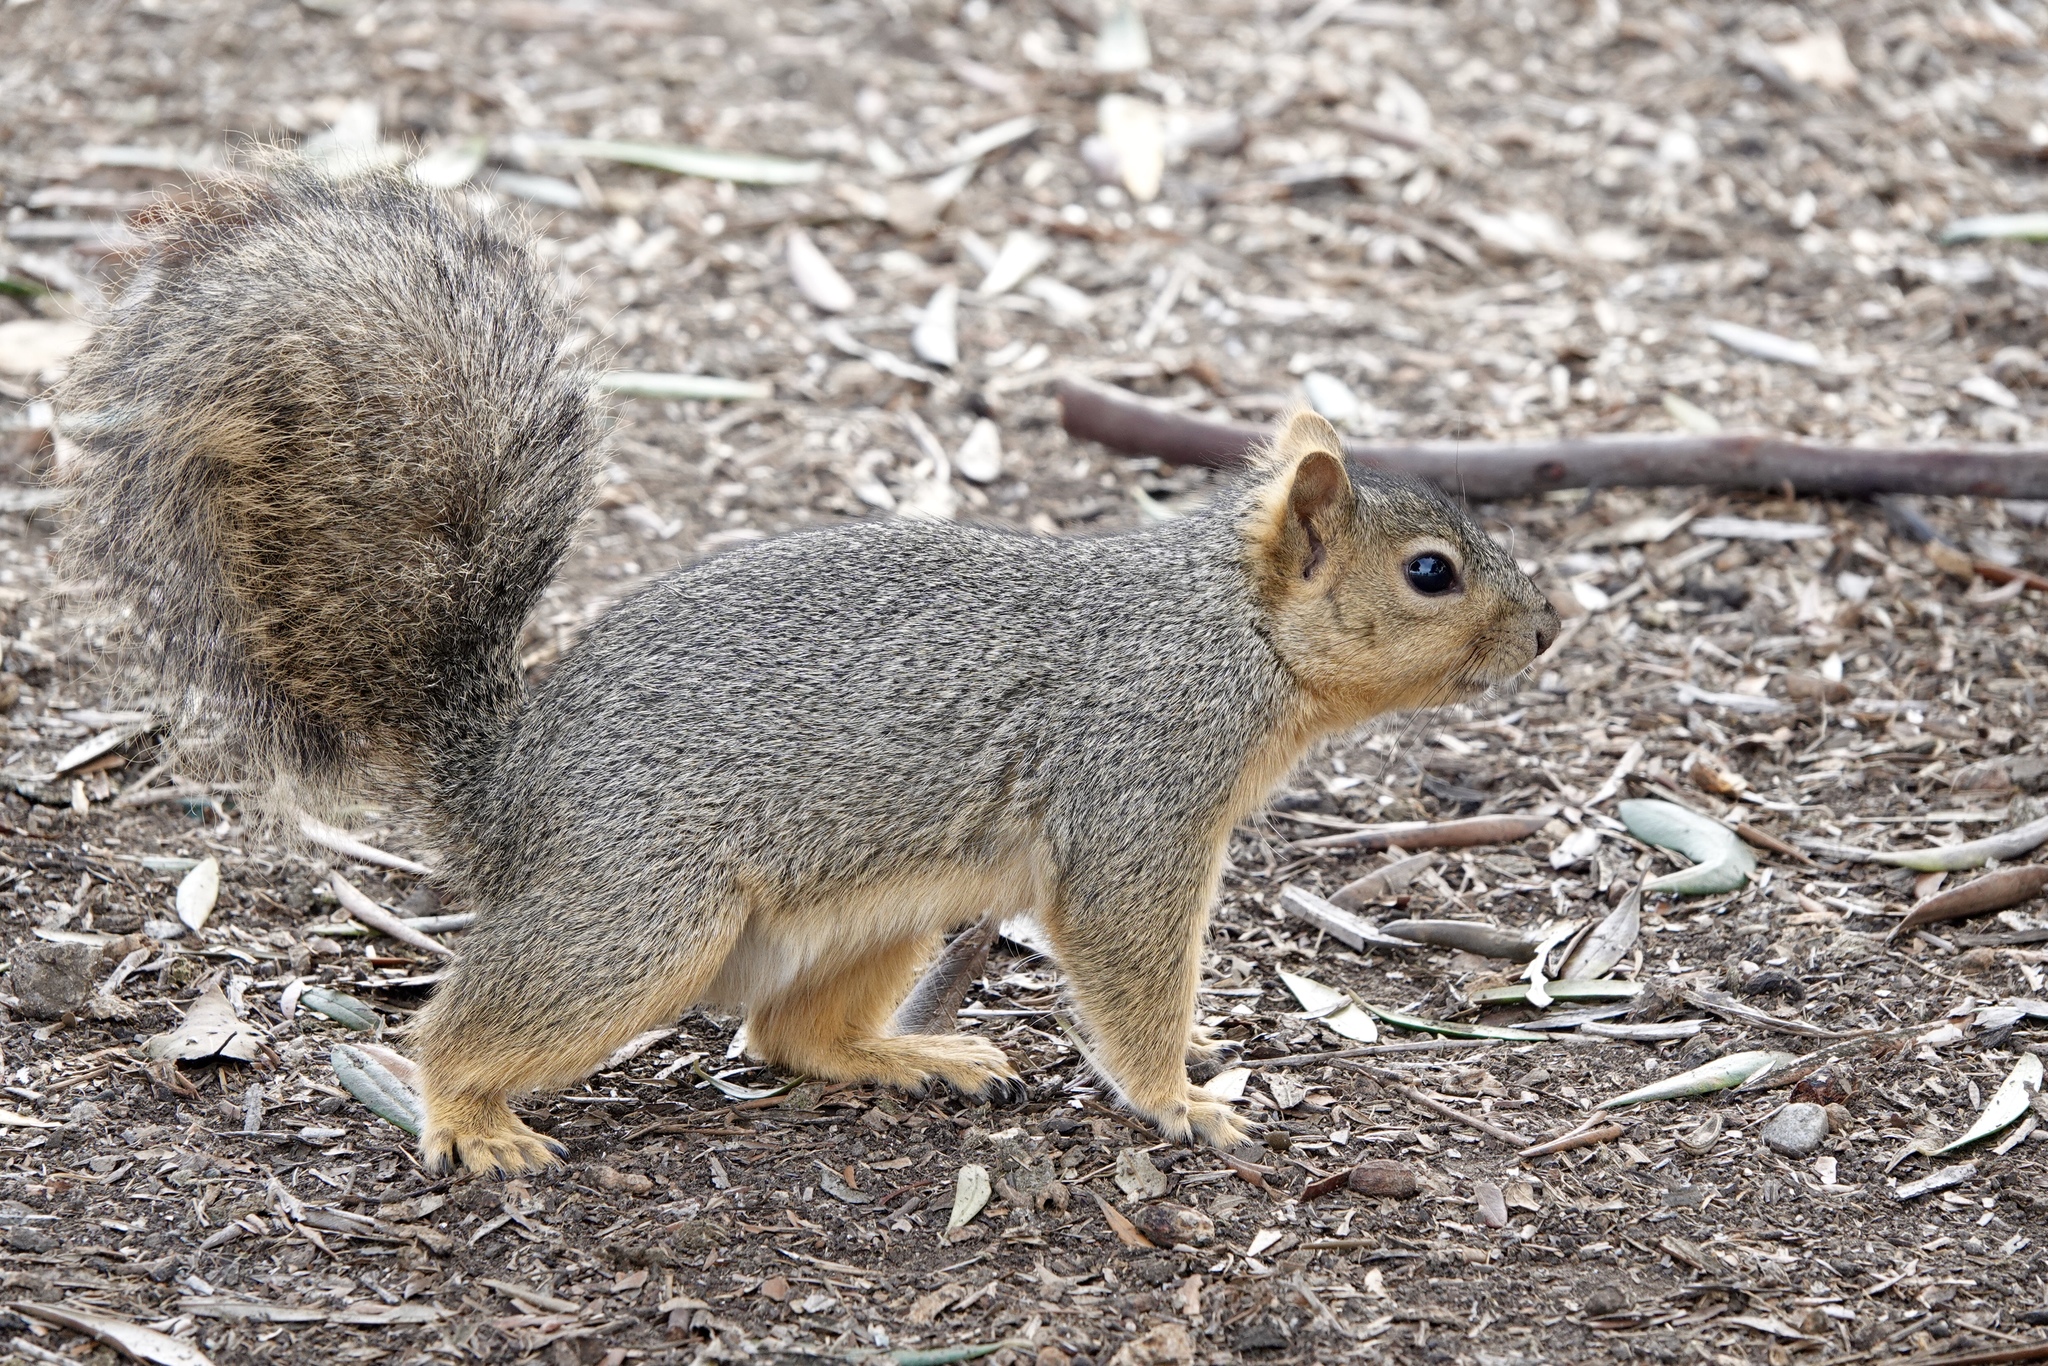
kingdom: Animalia
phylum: Chordata
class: Mammalia
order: Rodentia
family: Sciuridae
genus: Sciurus
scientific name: Sciurus niger
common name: Fox squirrel
